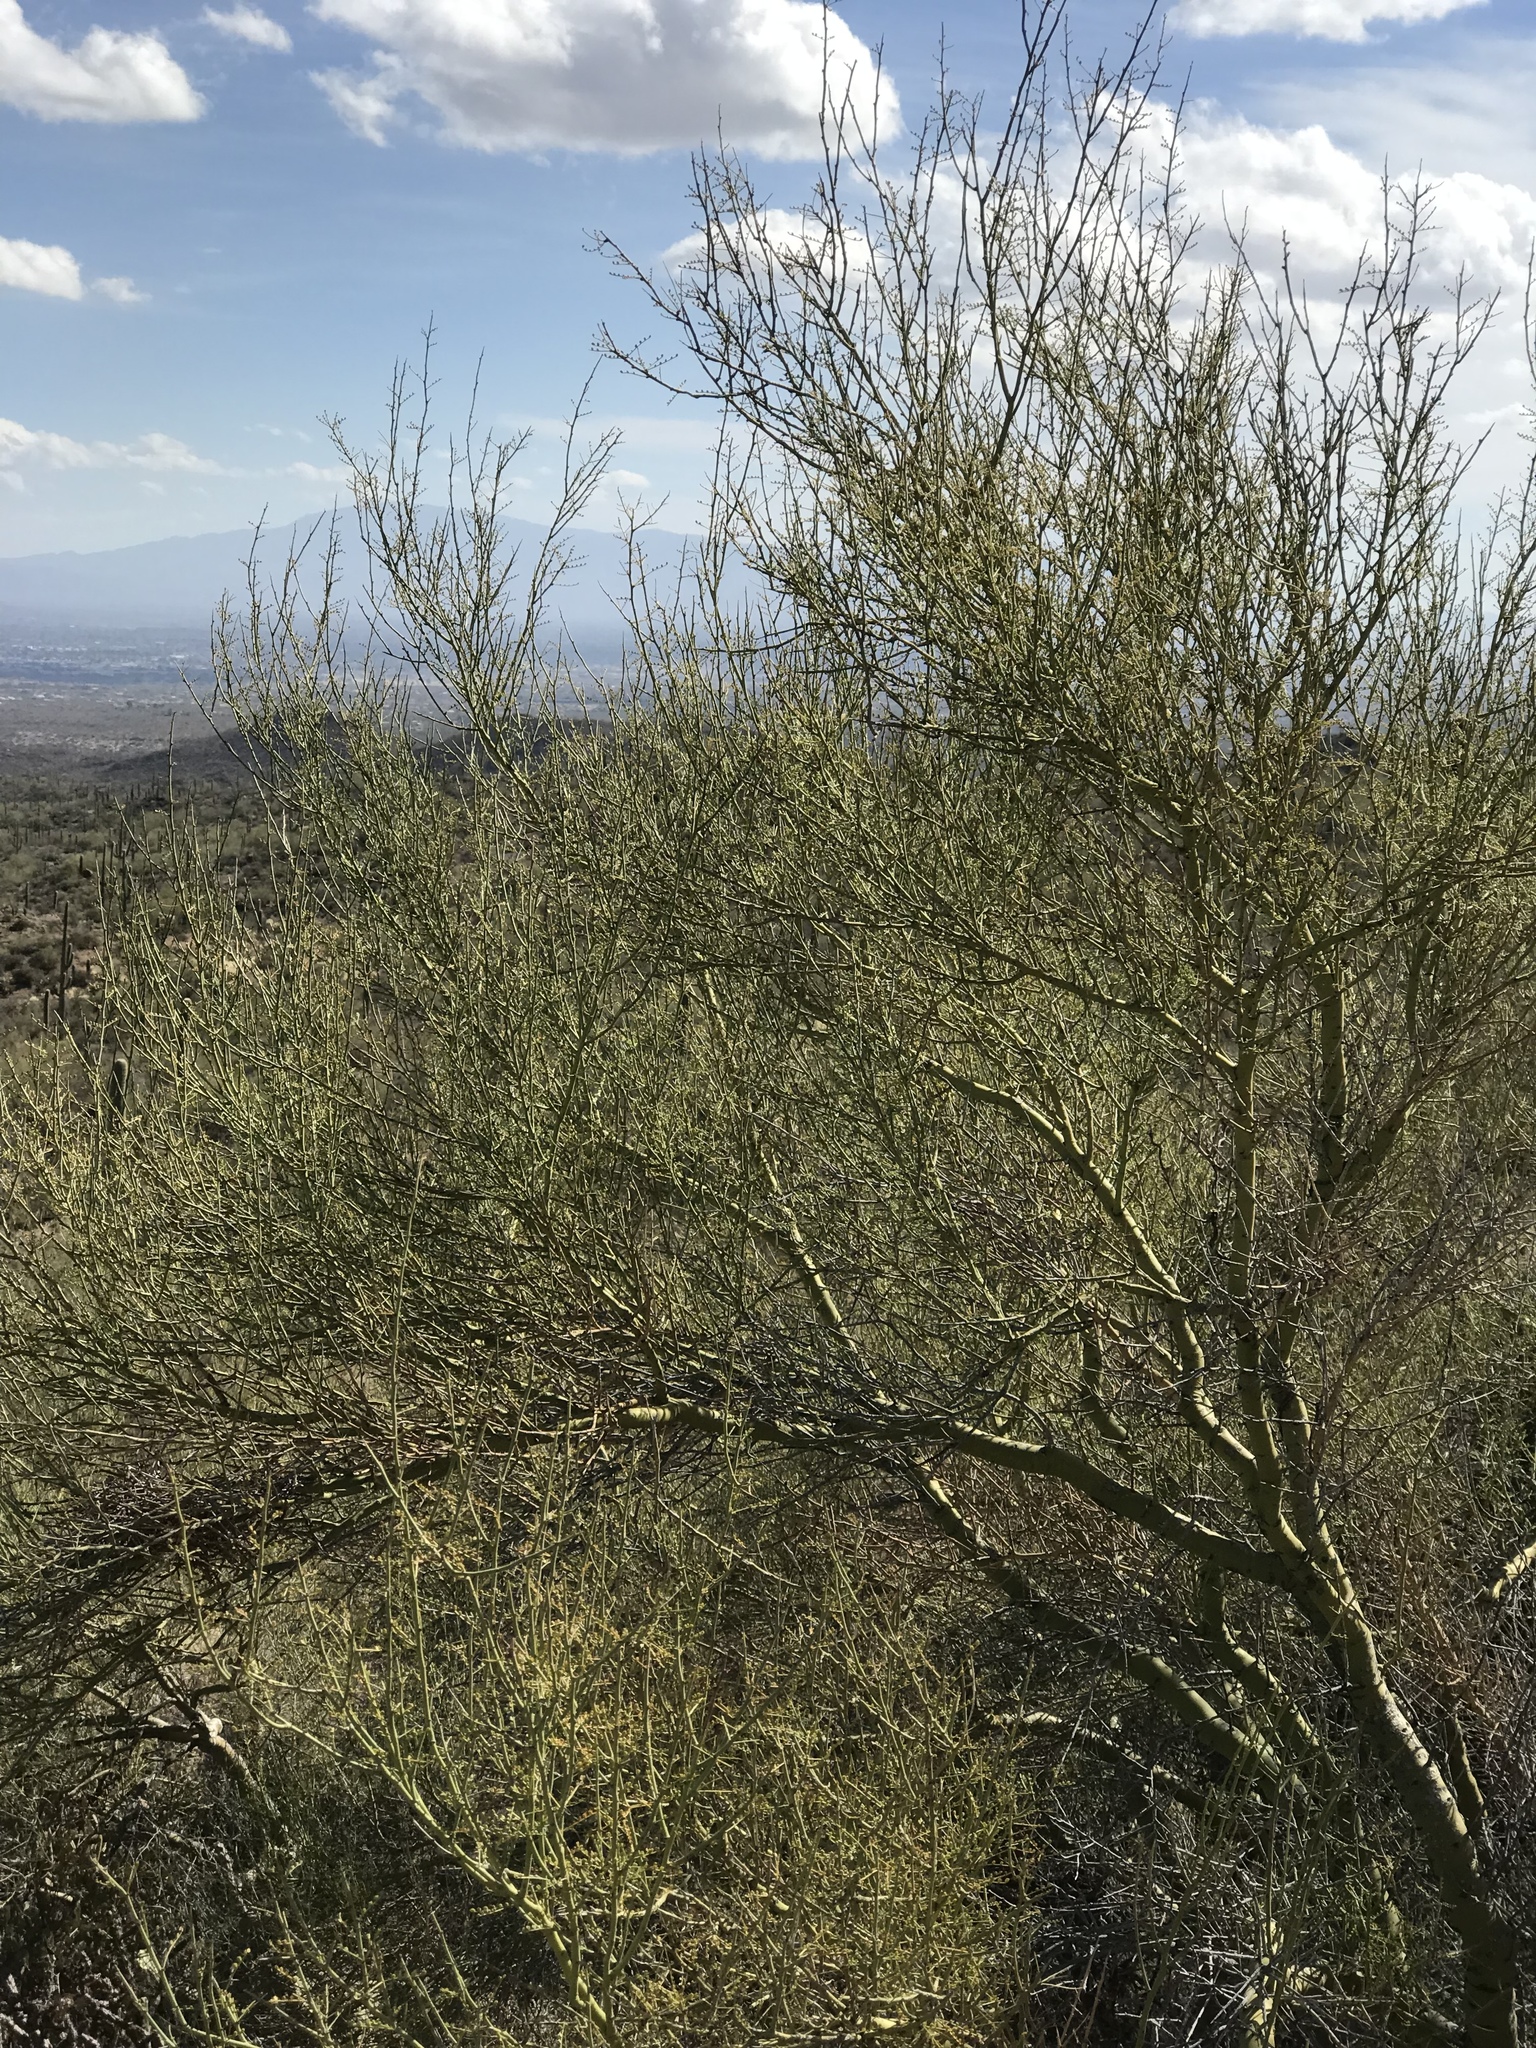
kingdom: Plantae
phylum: Tracheophyta
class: Magnoliopsida
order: Fabales
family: Fabaceae
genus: Parkinsonia
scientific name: Parkinsonia microphylla
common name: Yellow paloverde
